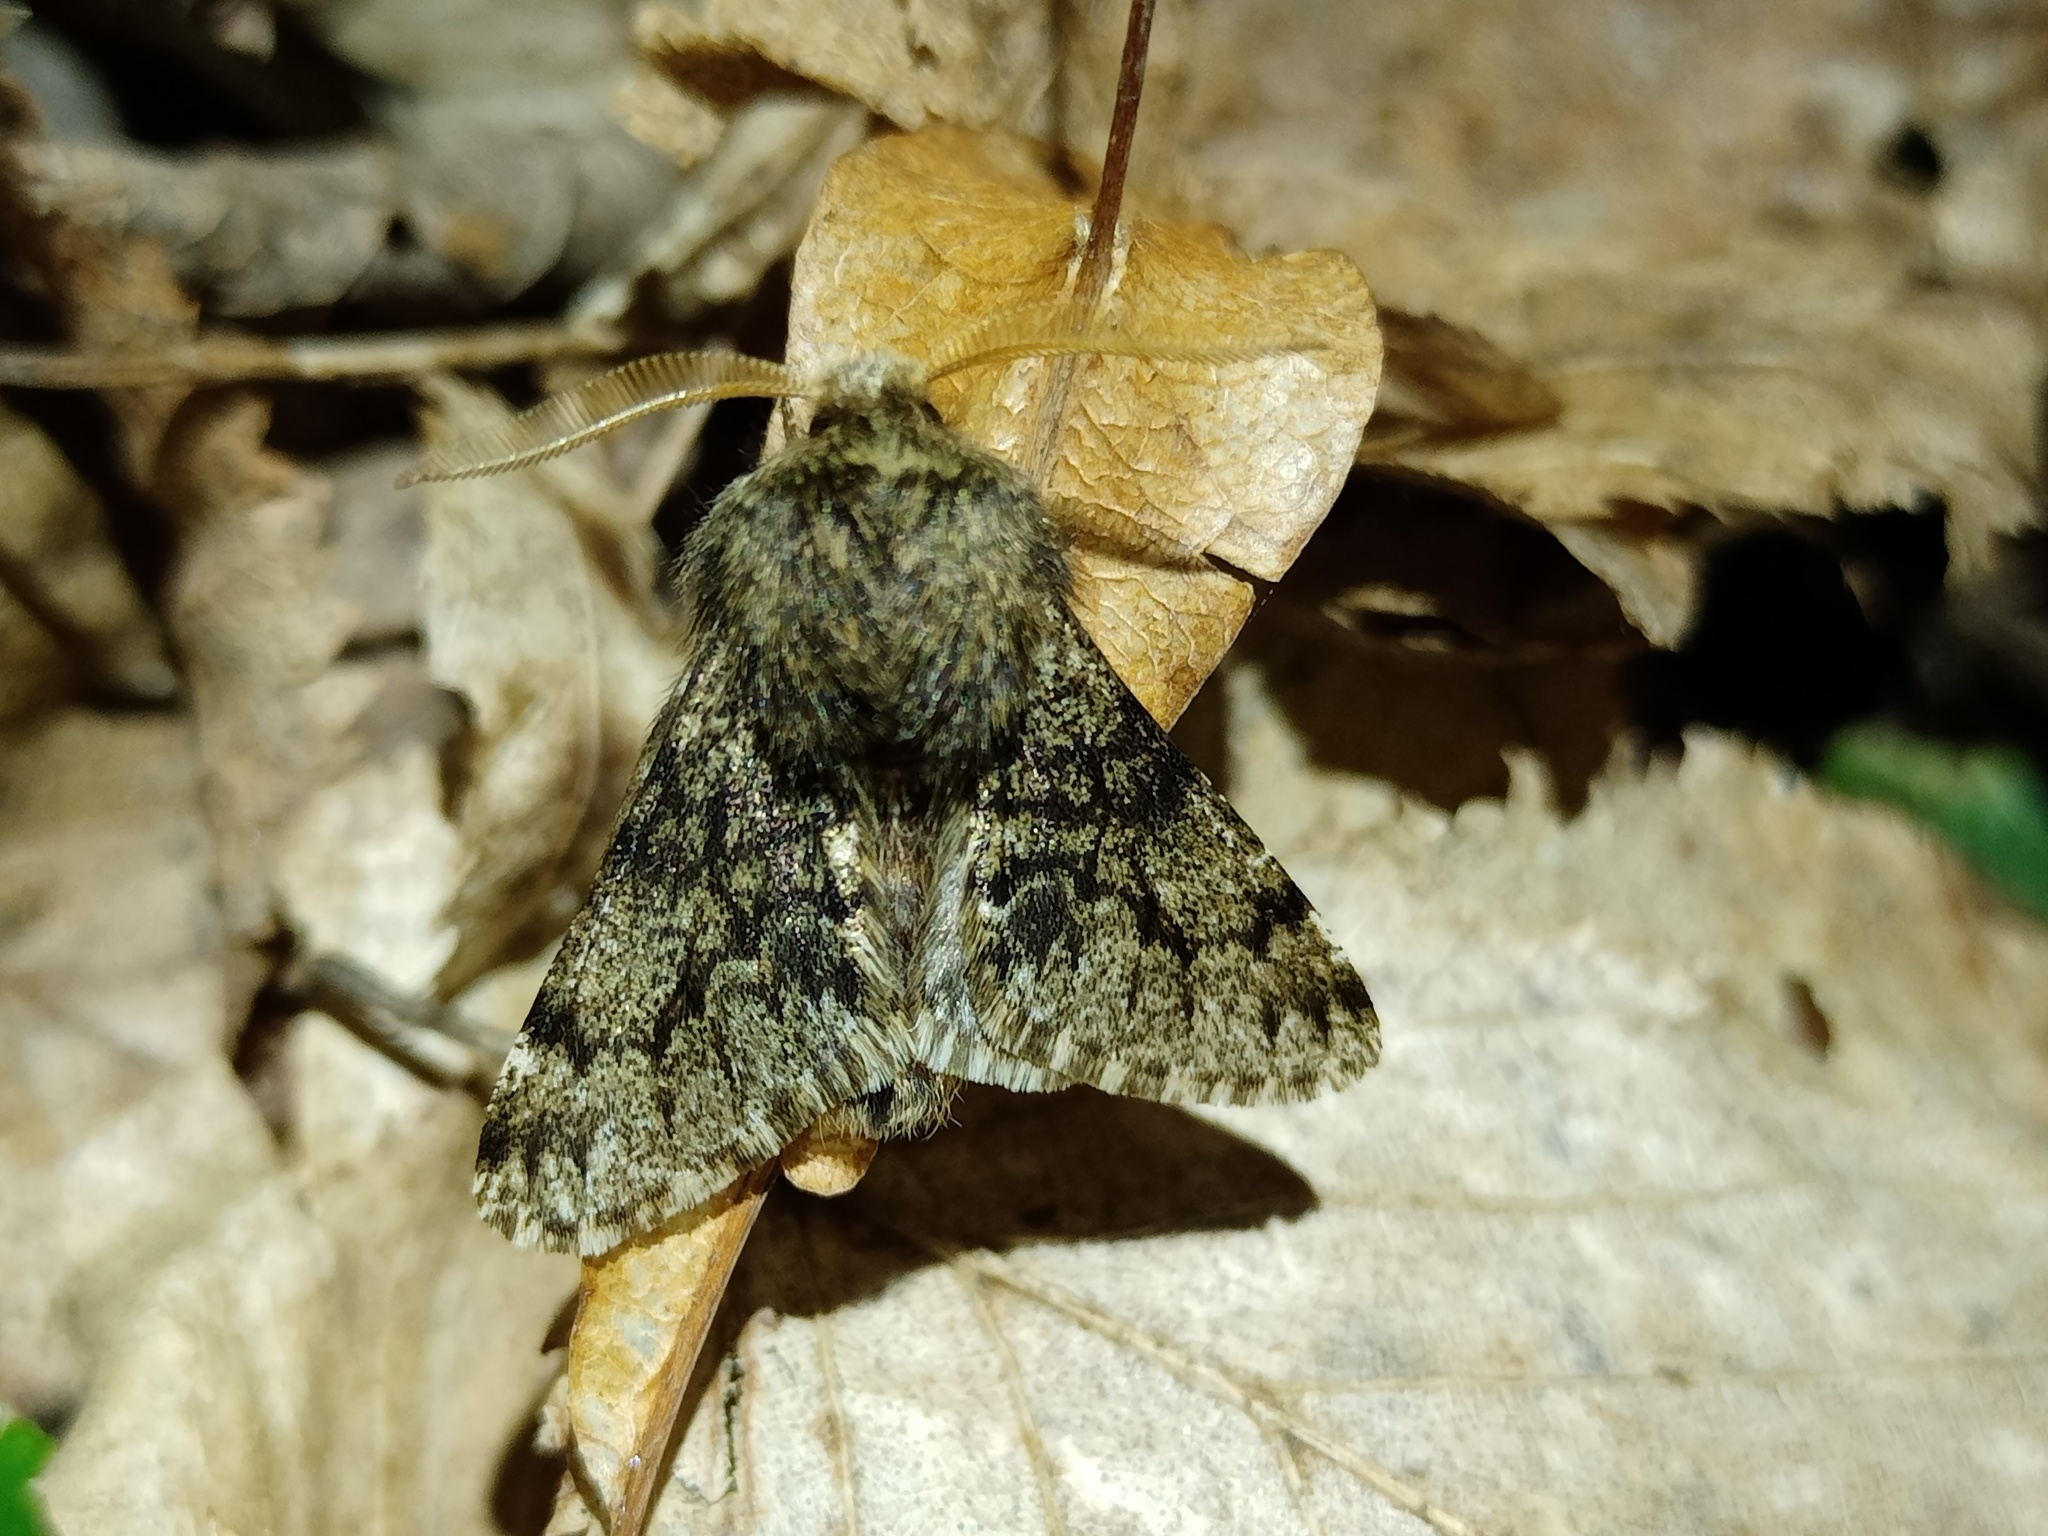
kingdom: Animalia
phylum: Arthropoda
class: Insecta
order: Lepidoptera
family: Geometridae
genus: Apocheima
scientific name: Apocheima hispidaria
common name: Small brindled beauty
